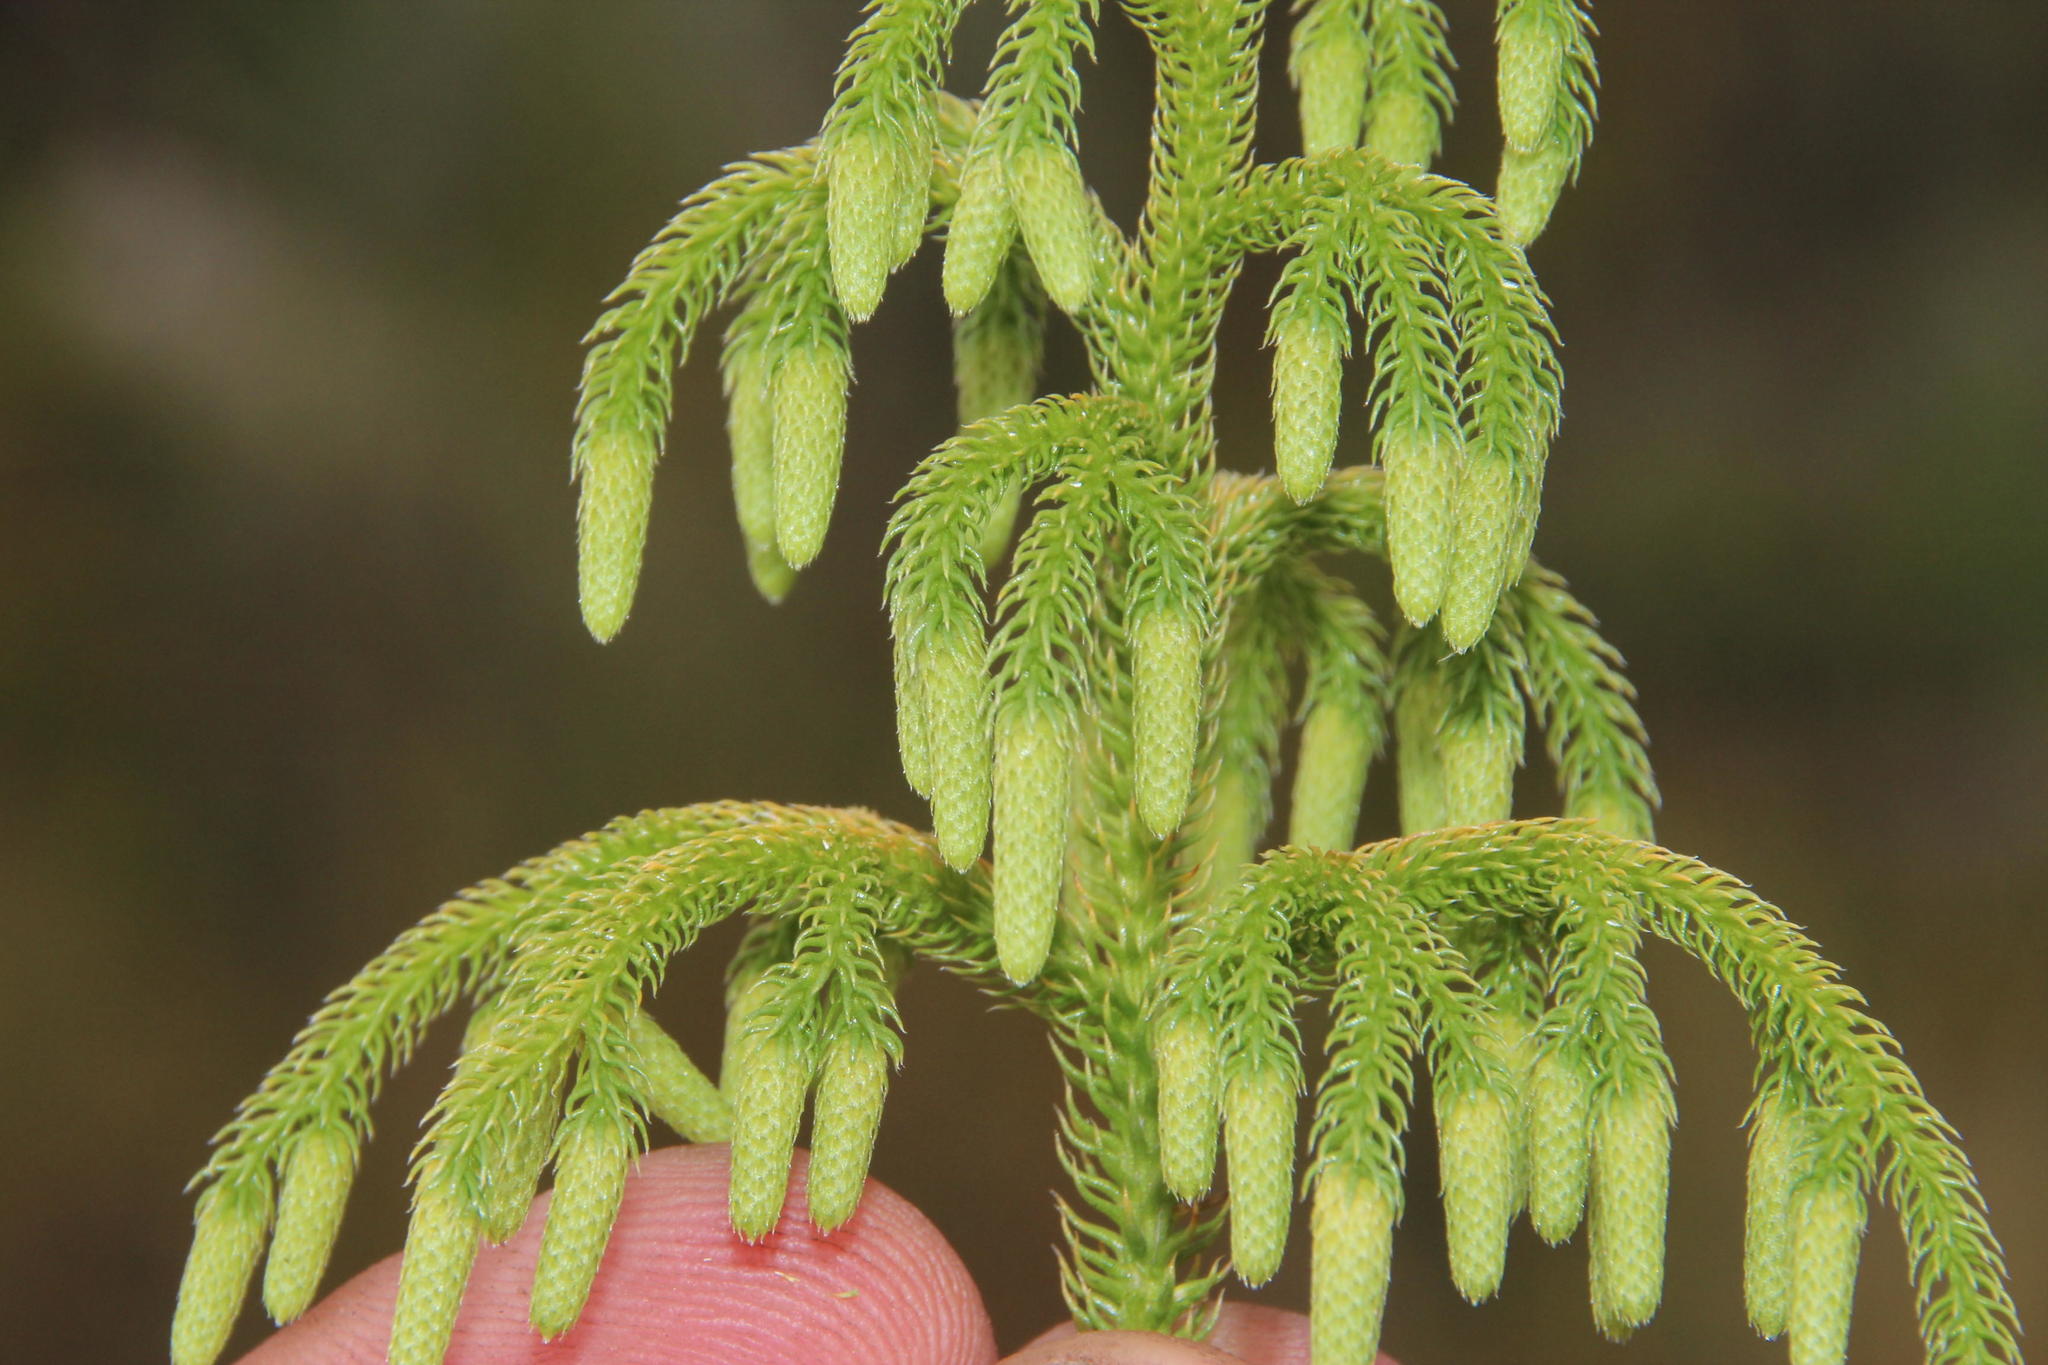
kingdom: Plantae
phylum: Tracheophyta
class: Lycopodiopsida
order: Lycopodiales
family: Lycopodiaceae
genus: Palhinhaea
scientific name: Palhinhaea cernua
